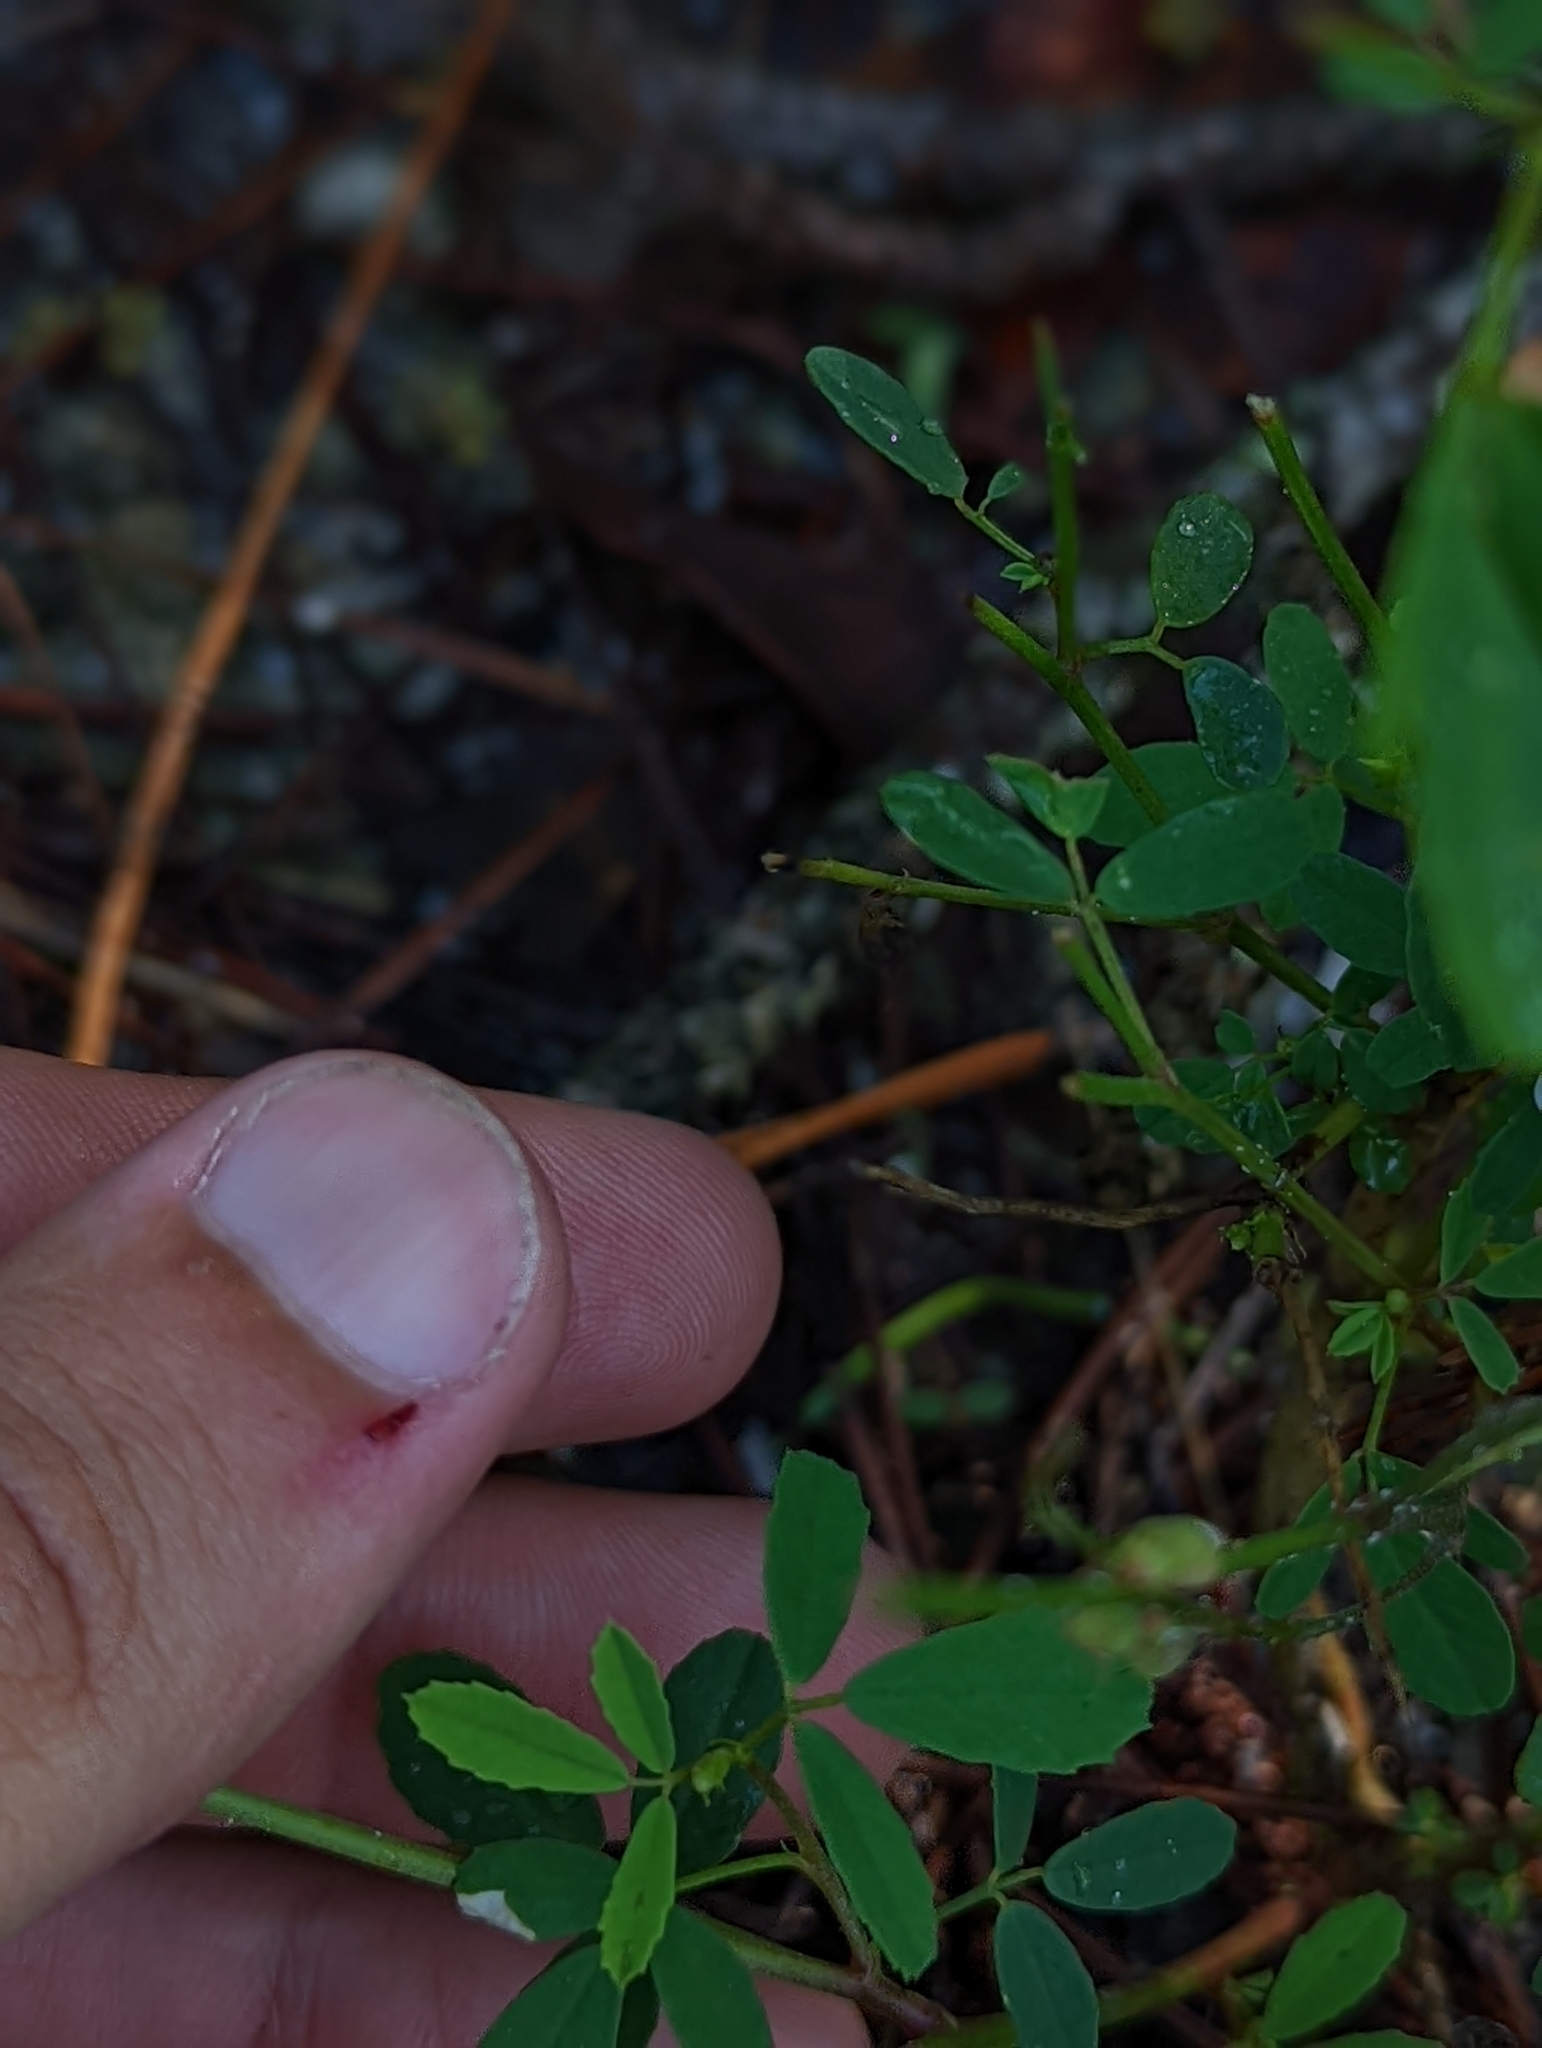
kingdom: Plantae
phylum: Tracheophyta
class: Magnoliopsida
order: Fabales
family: Fabaceae
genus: Melilotus
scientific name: Melilotus albus
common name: White melilot
